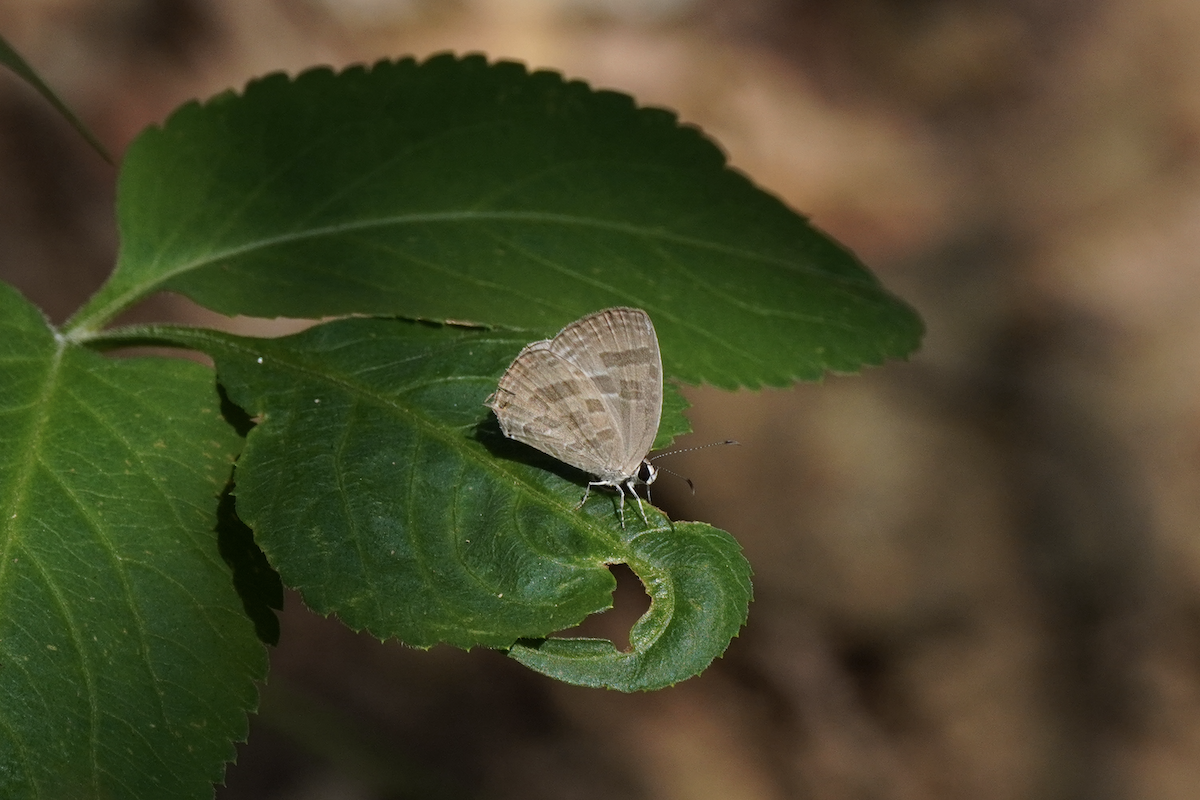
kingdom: Animalia
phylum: Arthropoda
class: Insecta
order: Lepidoptera
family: Lycaenidae
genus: Jamides
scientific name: Jamides celeno
